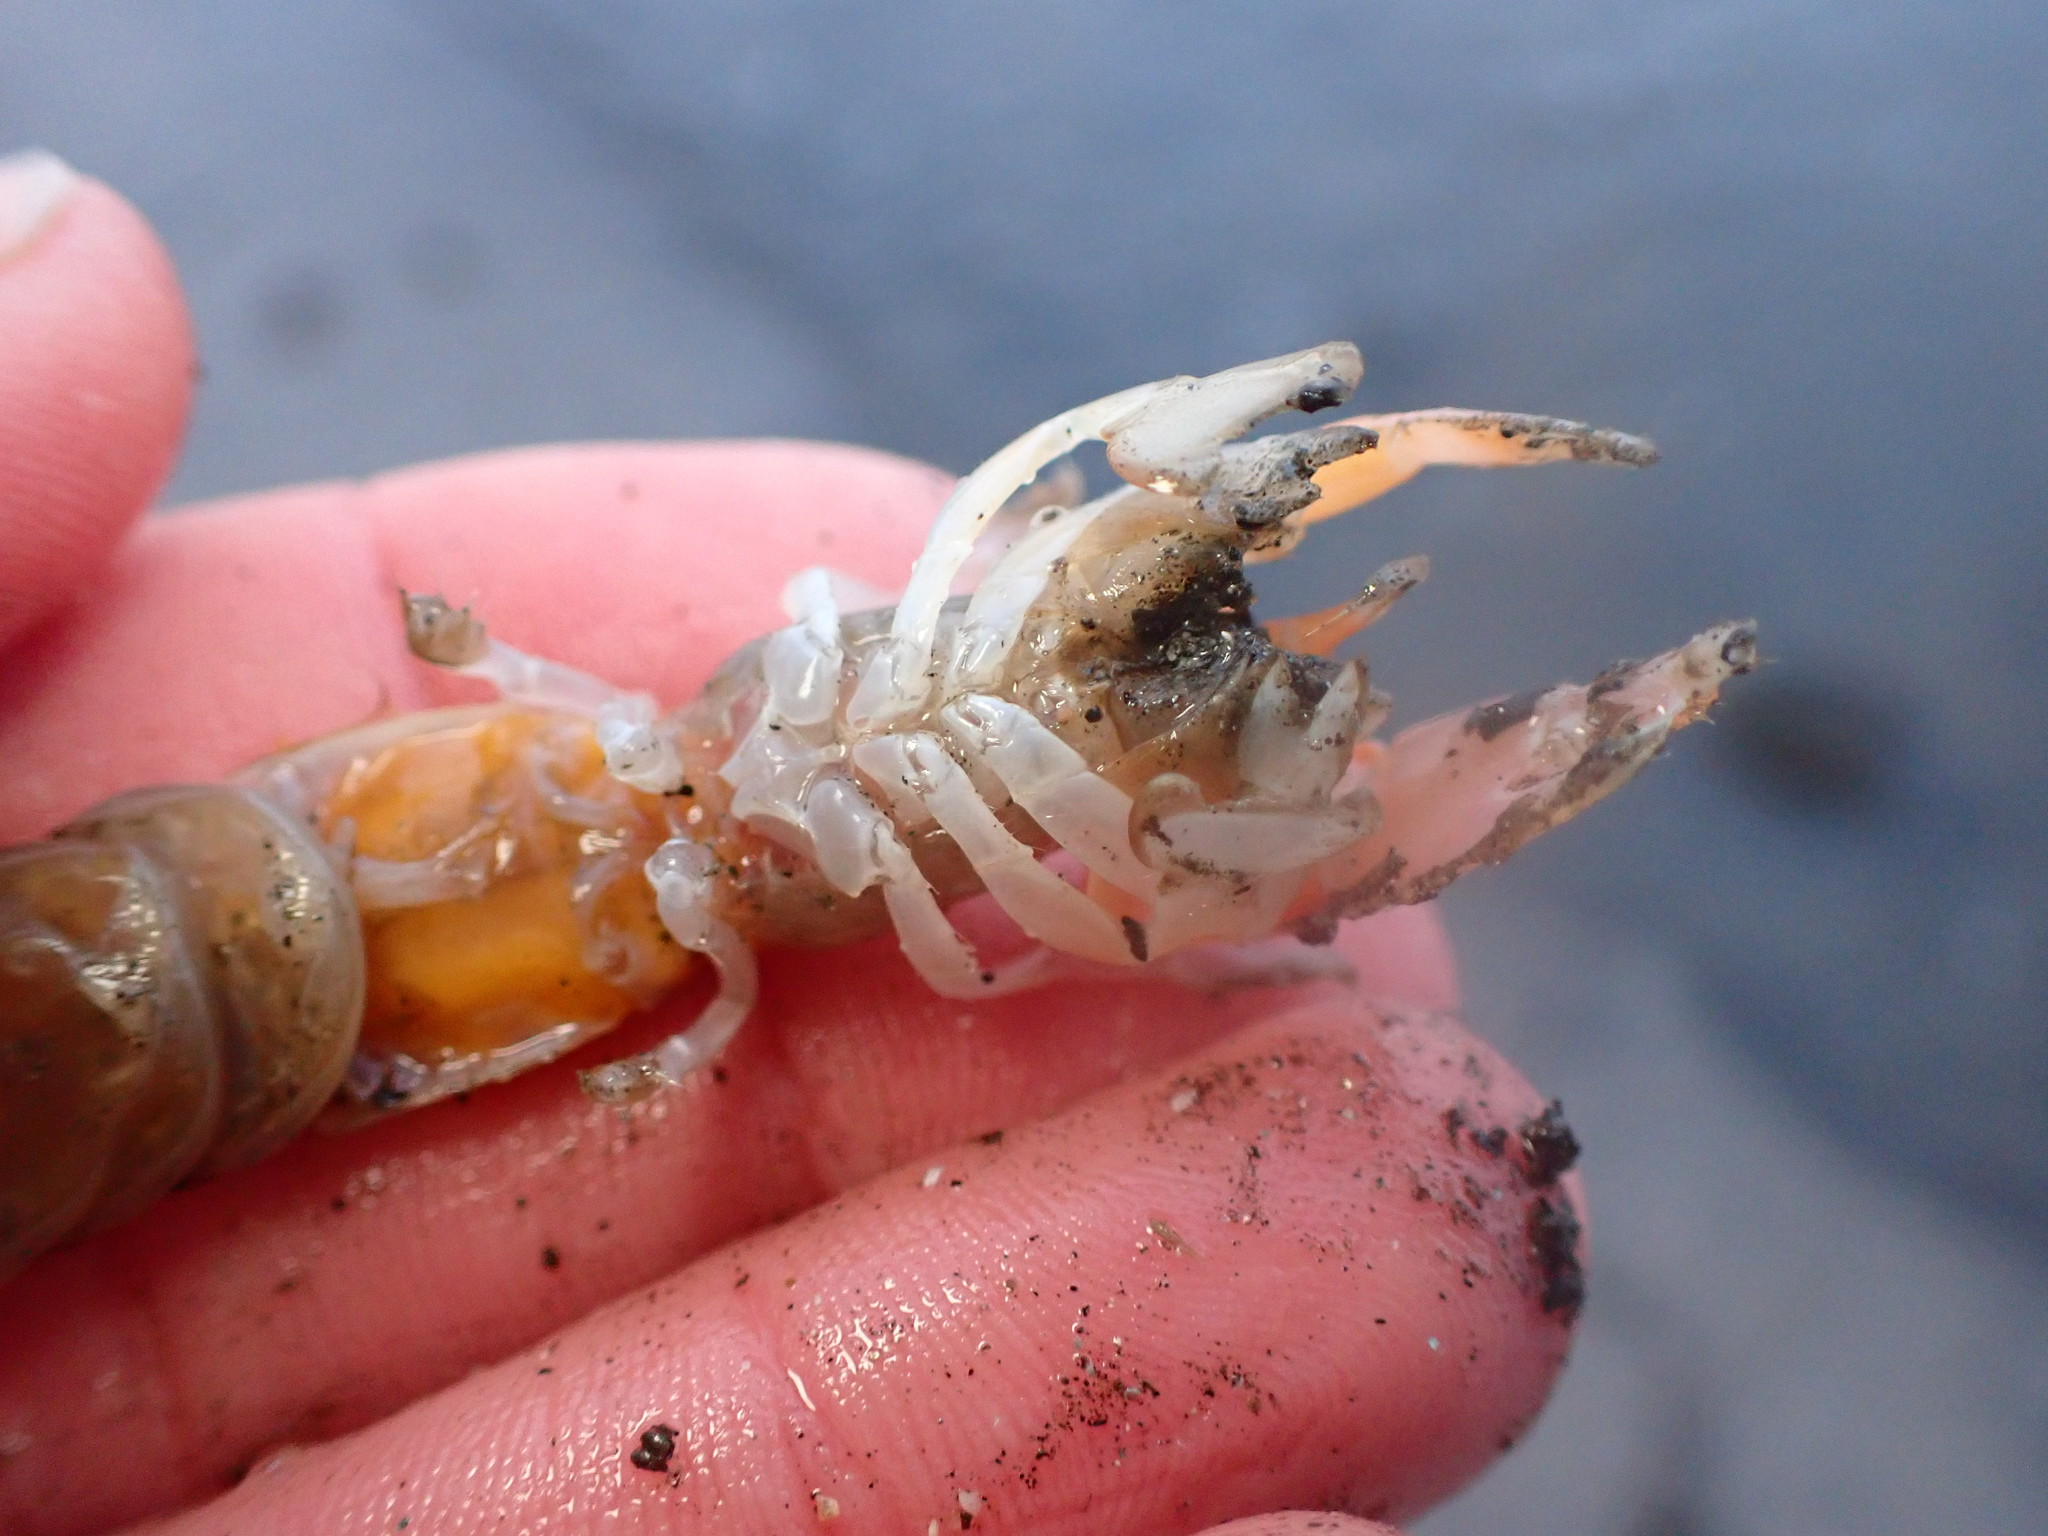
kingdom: Animalia
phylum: Arthropoda
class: Malacostraca
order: Decapoda
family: Callianassidae
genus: Neotrypaea
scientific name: Neotrypaea californiensis
